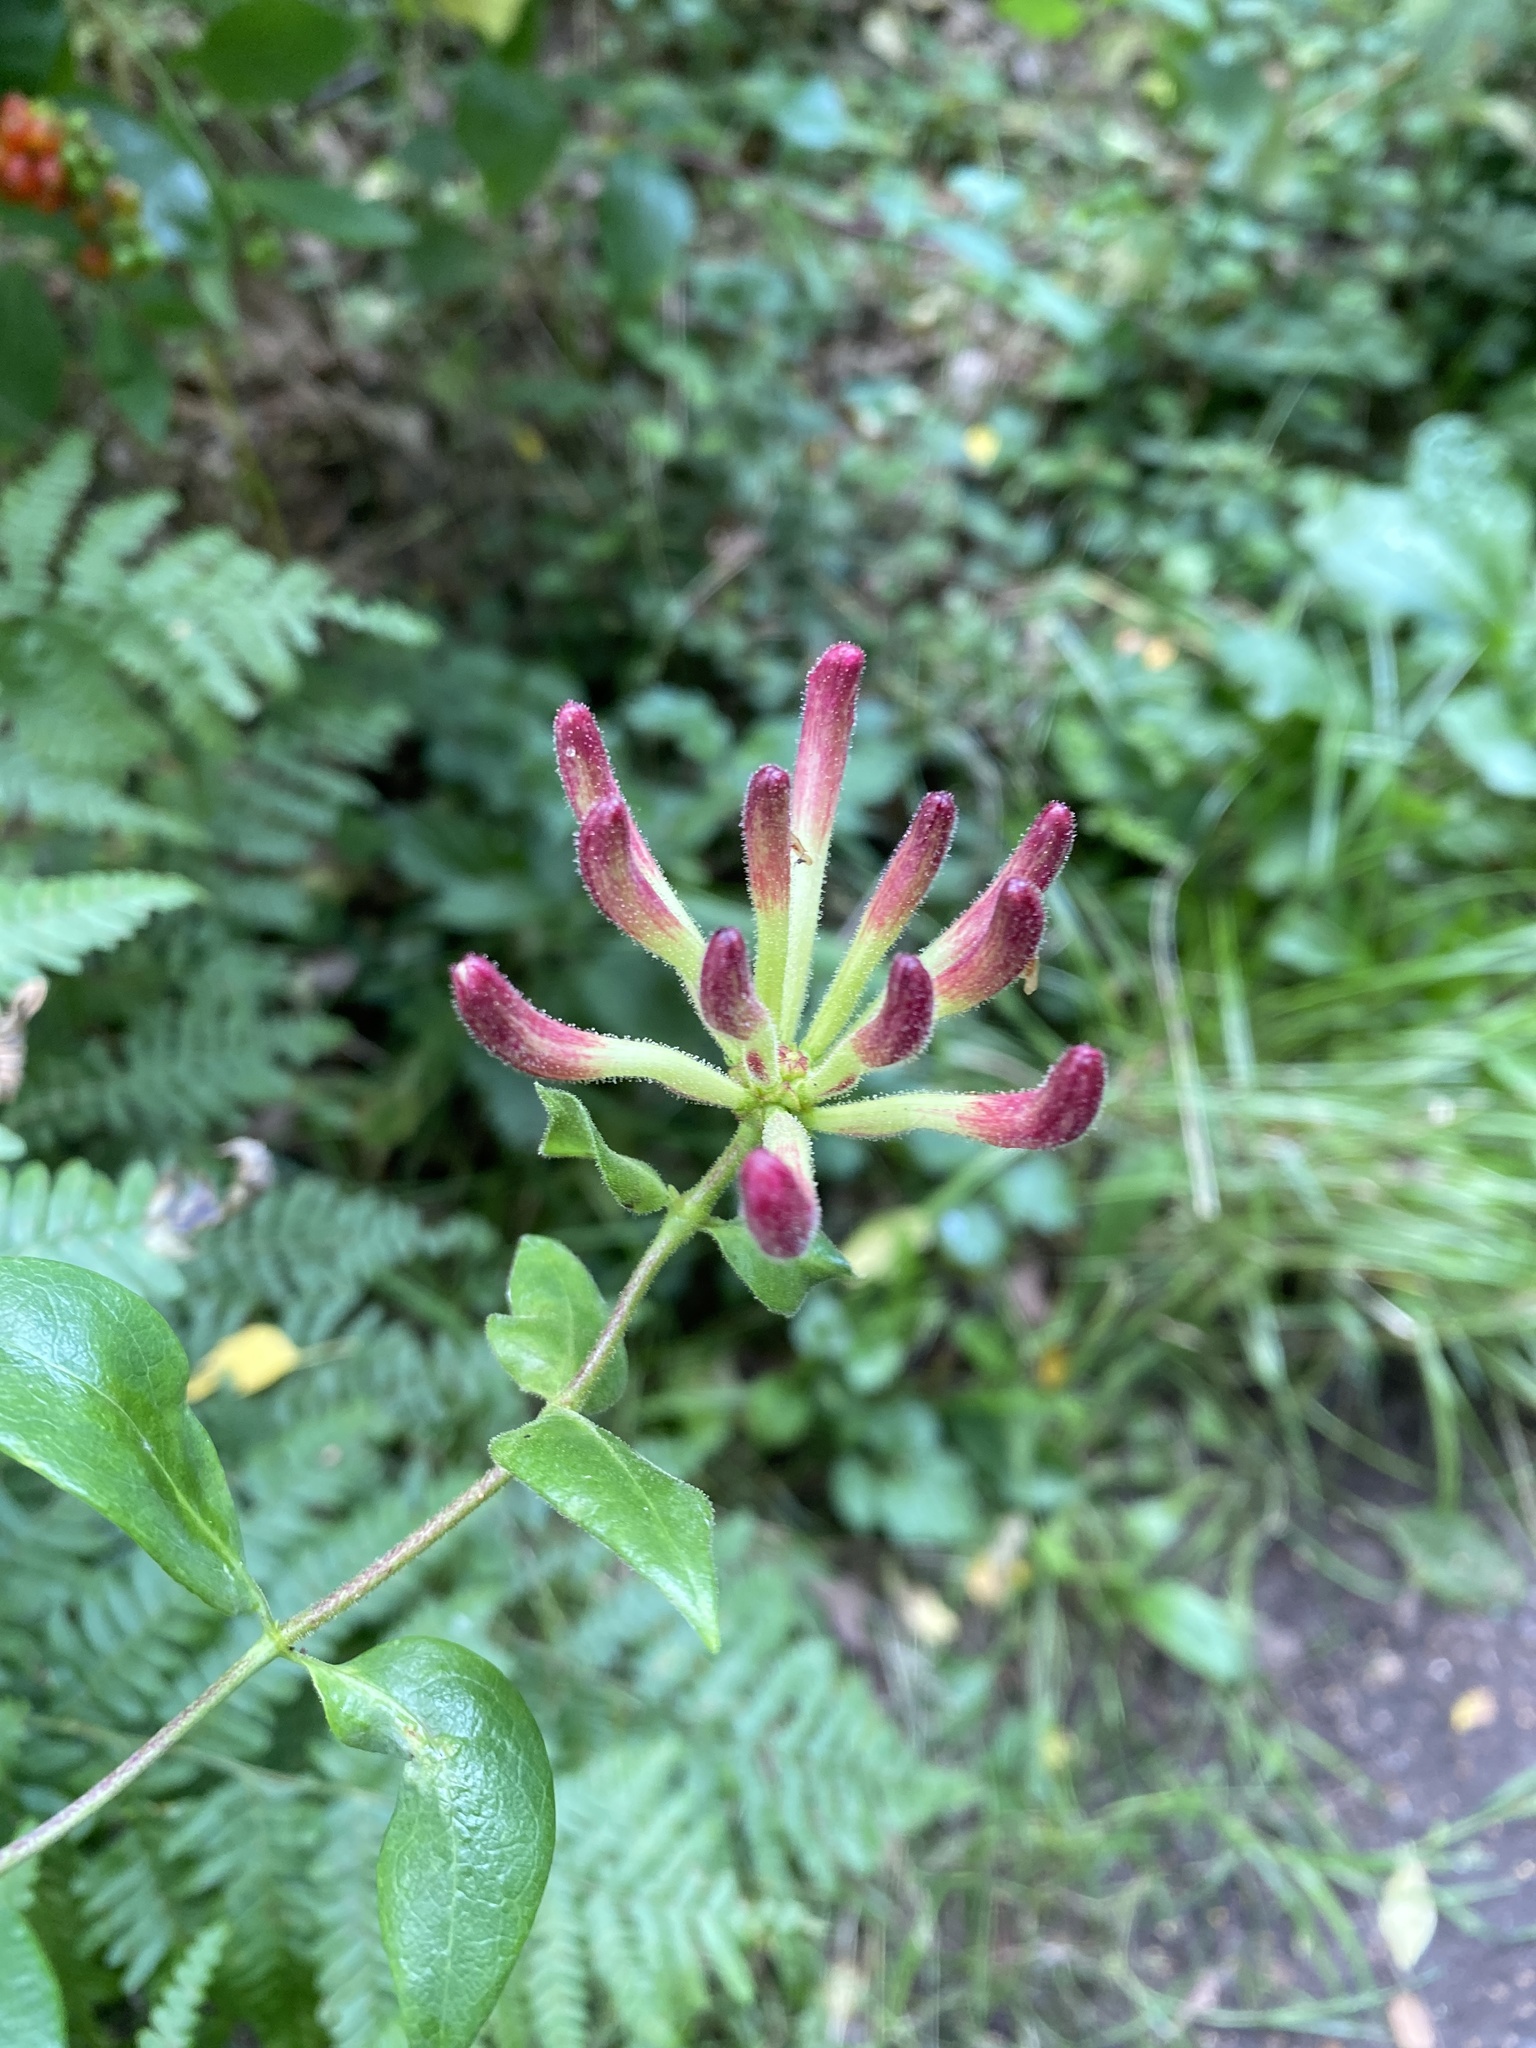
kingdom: Plantae
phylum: Tracheophyta
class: Magnoliopsida
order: Dipsacales
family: Caprifoliaceae
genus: Lonicera
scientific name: Lonicera periclymenum
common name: European honeysuckle
